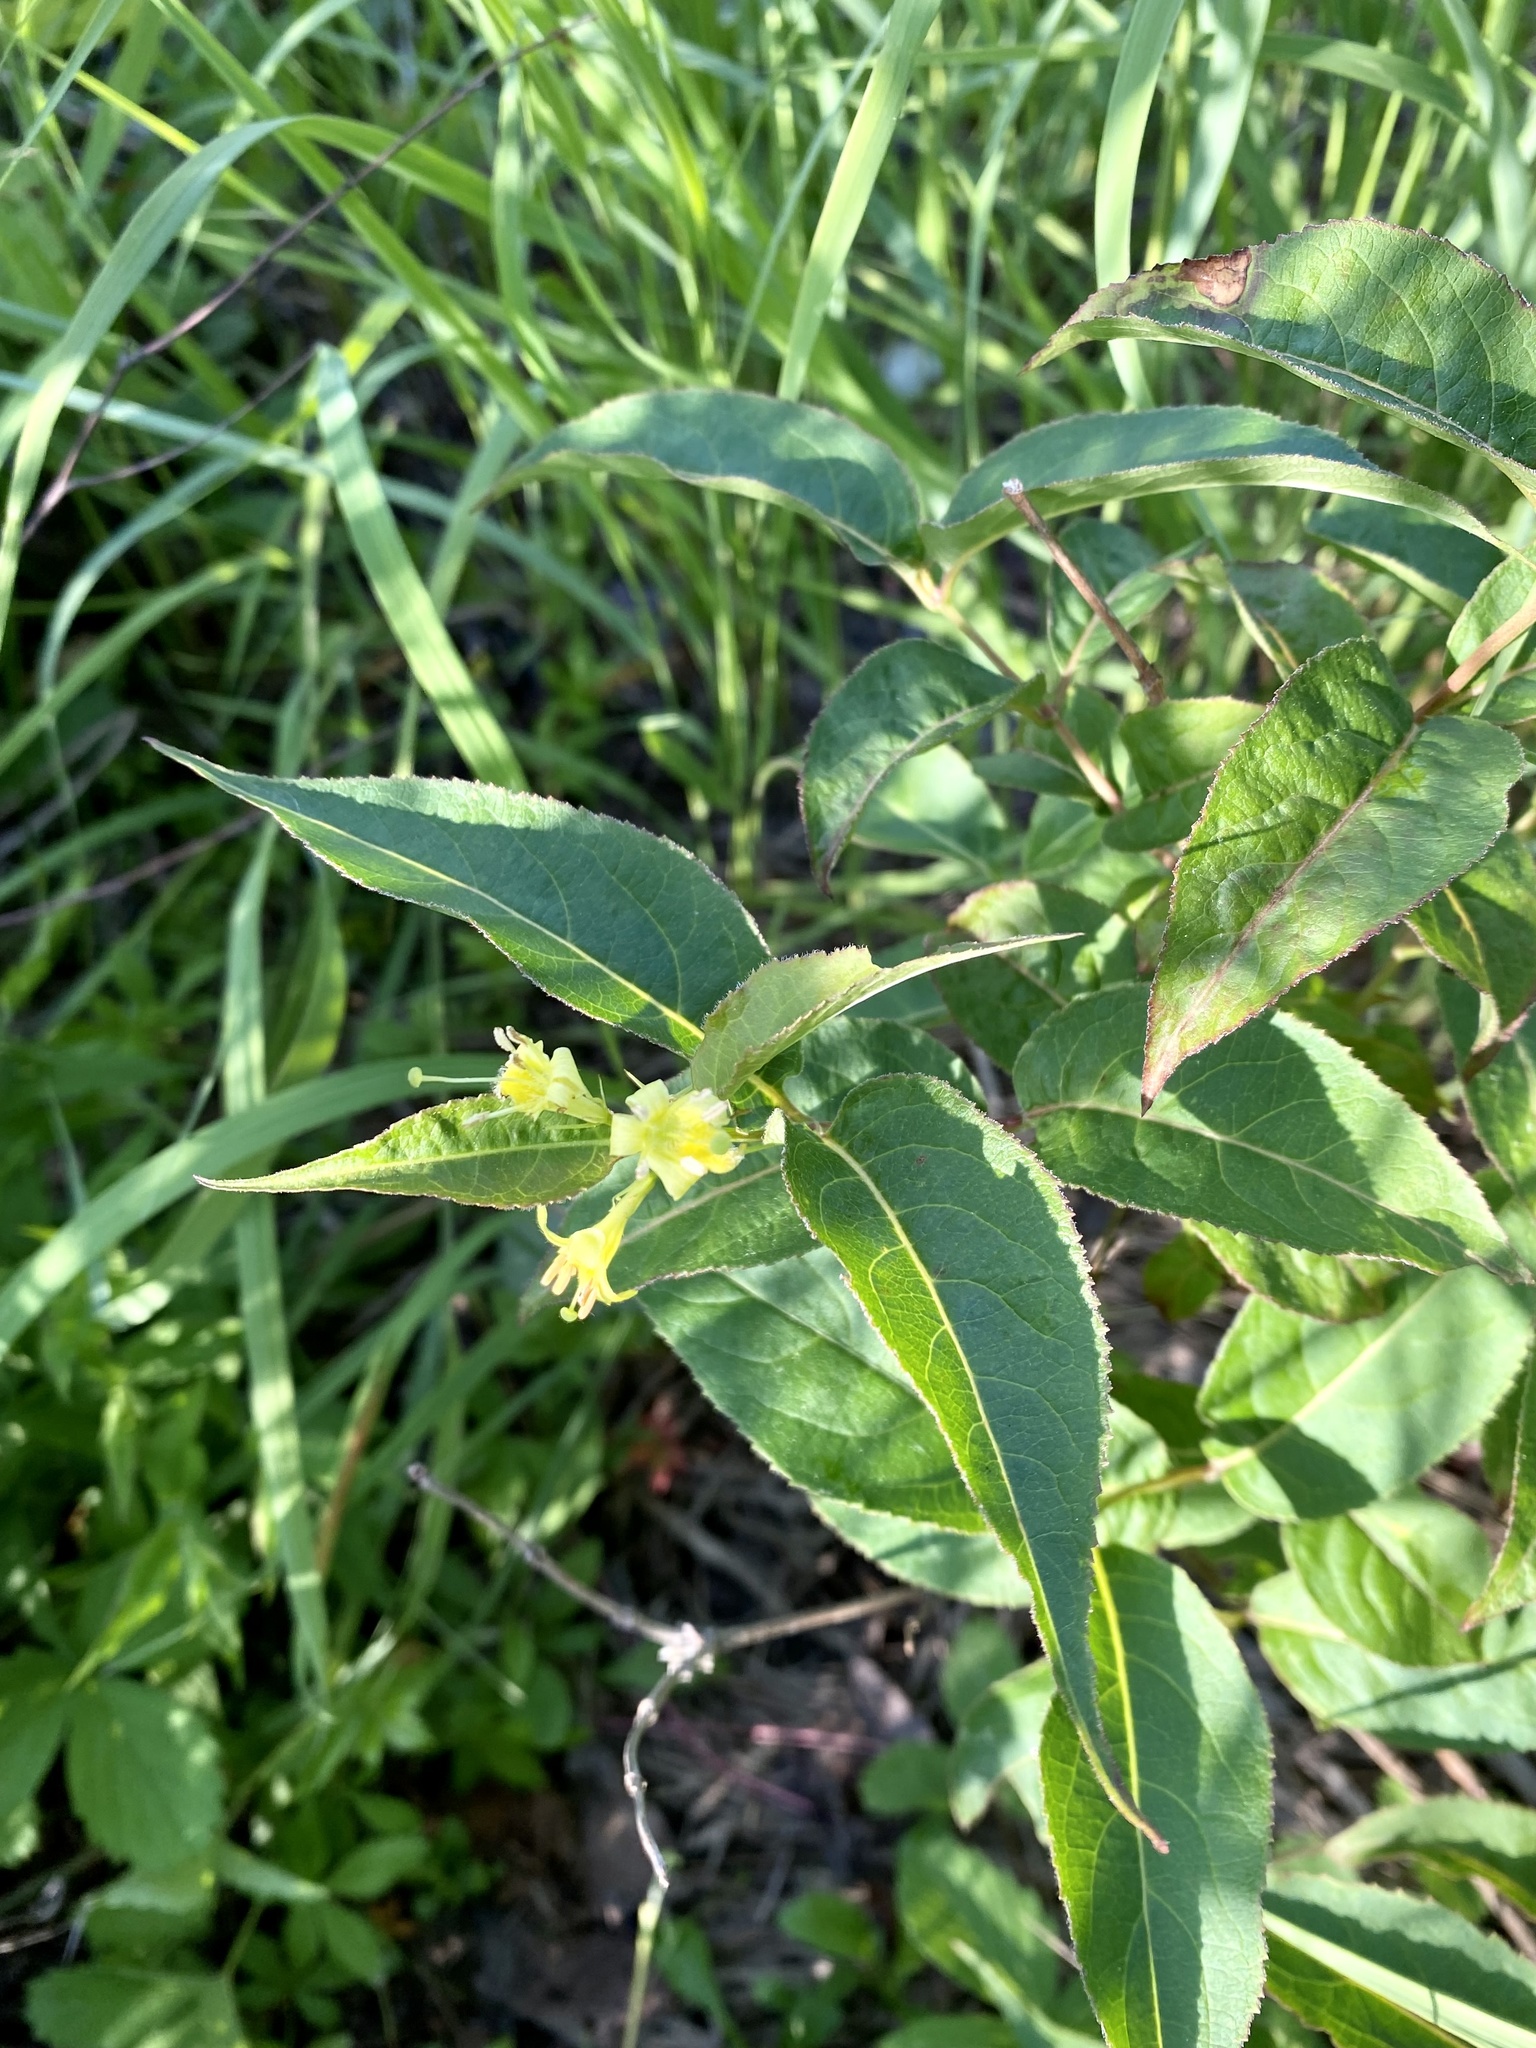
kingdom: Plantae
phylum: Tracheophyta
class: Magnoliopsida
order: Dipsacales
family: Caprifoliaceae
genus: Diervilla
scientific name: Diervilla lonicera
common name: Bush-honeysuckle
